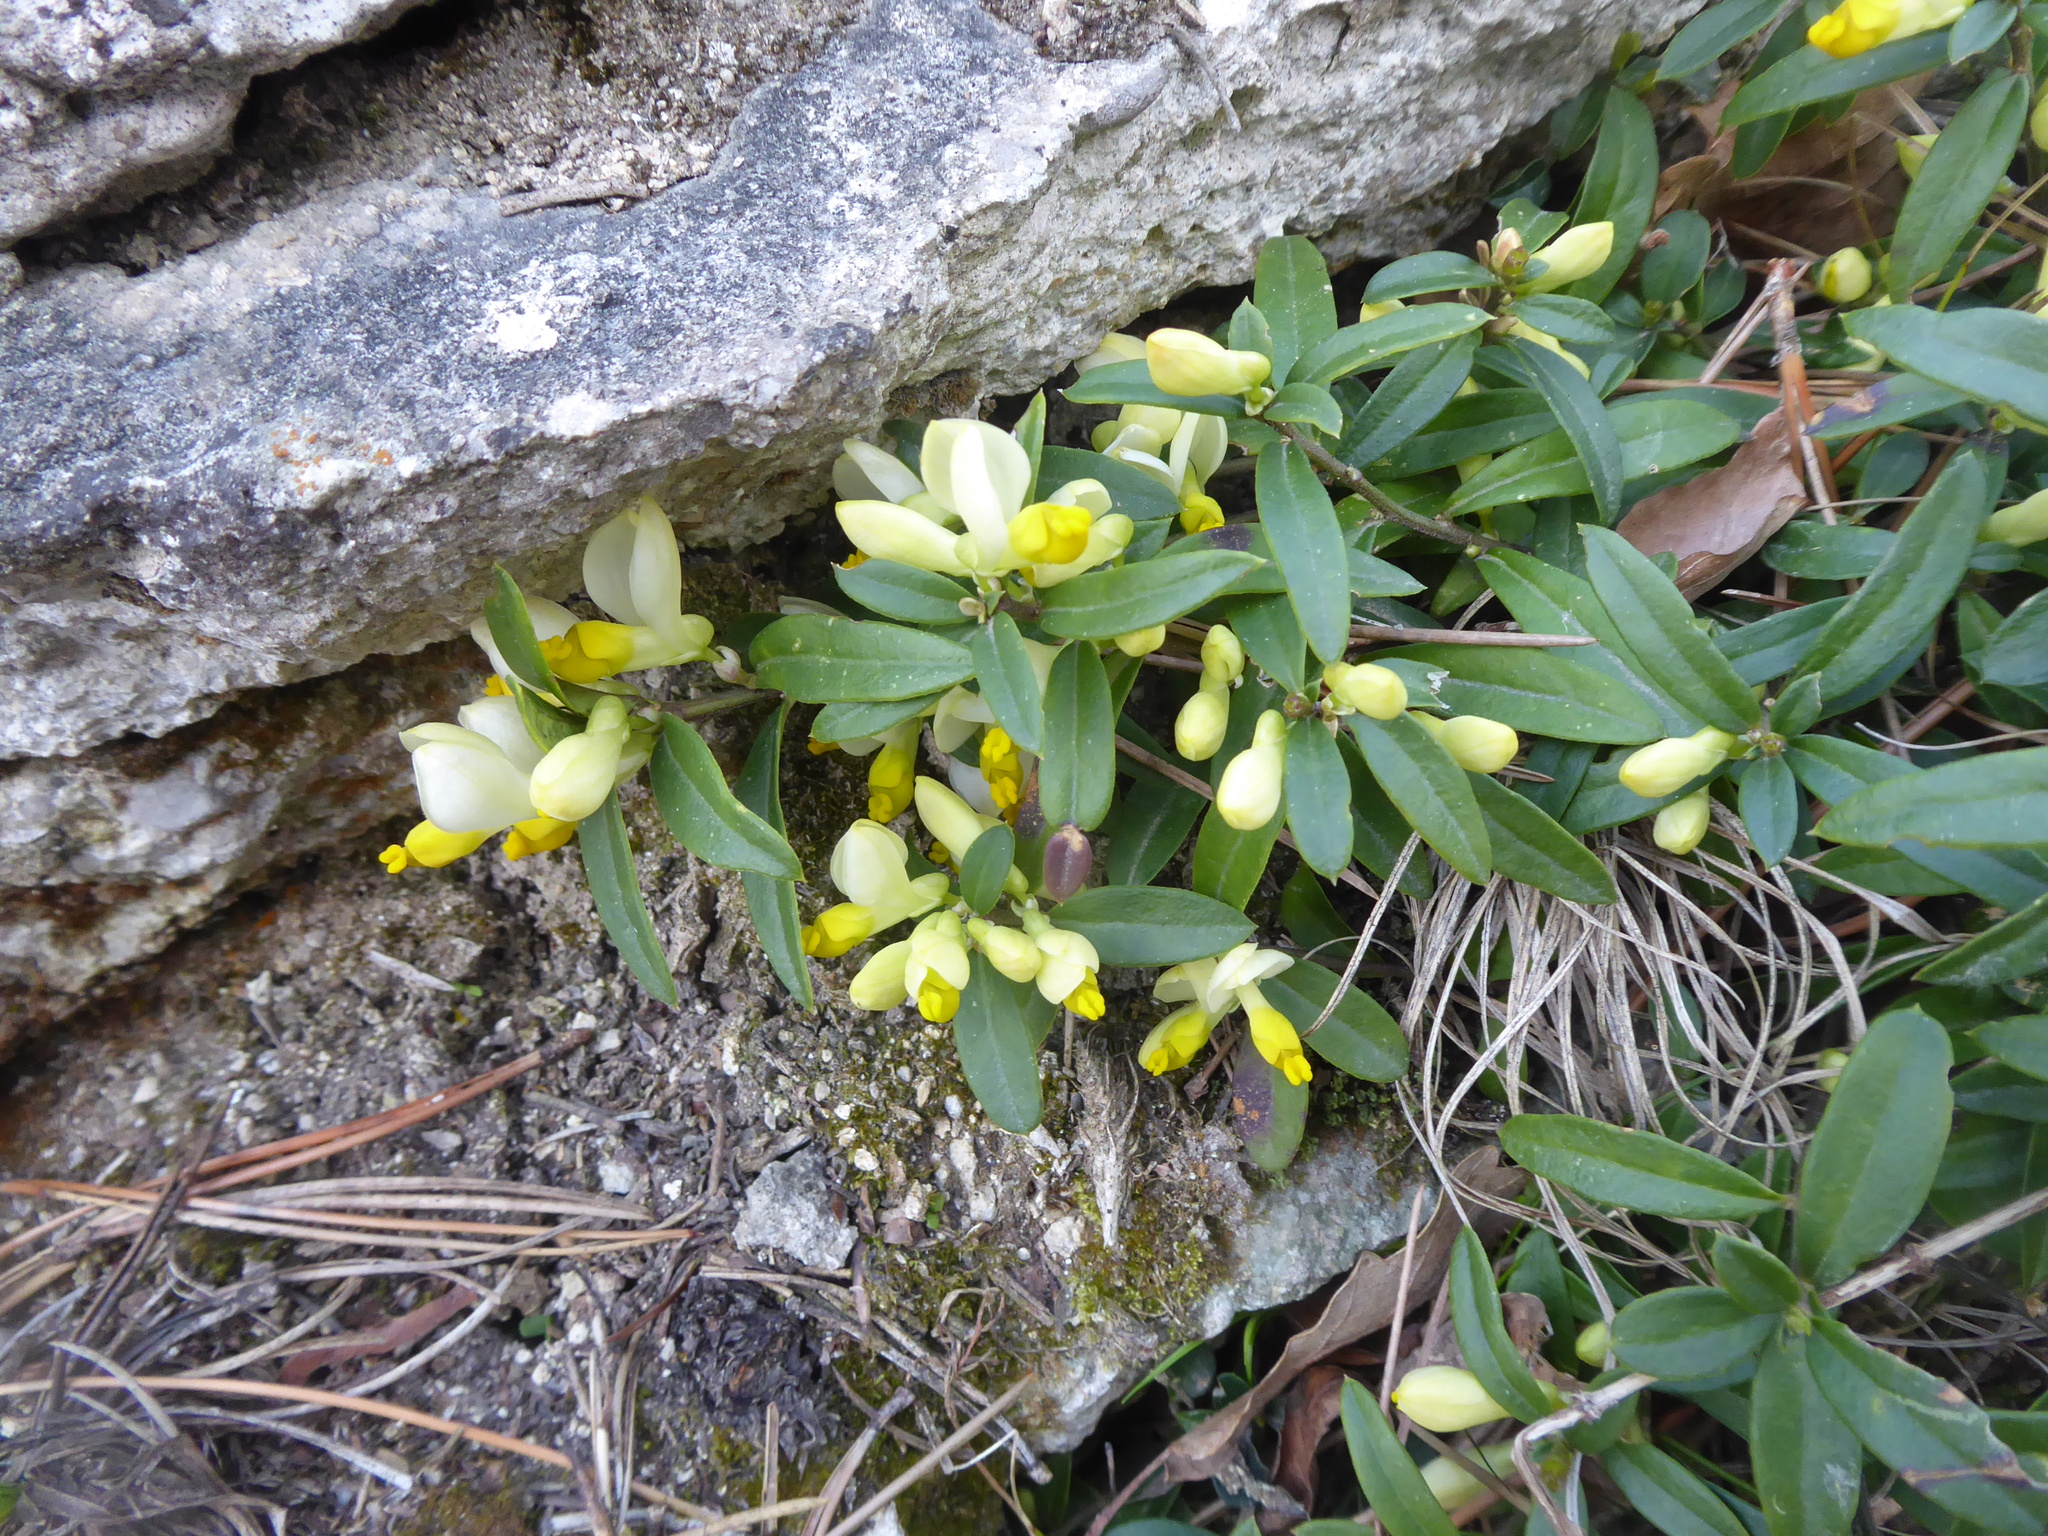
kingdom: Plantae
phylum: Tracheophyta
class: Magnoliopsida
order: Fabales
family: Polygalaceae
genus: Polygaloides
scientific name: Polygaloides chamaebuxus
